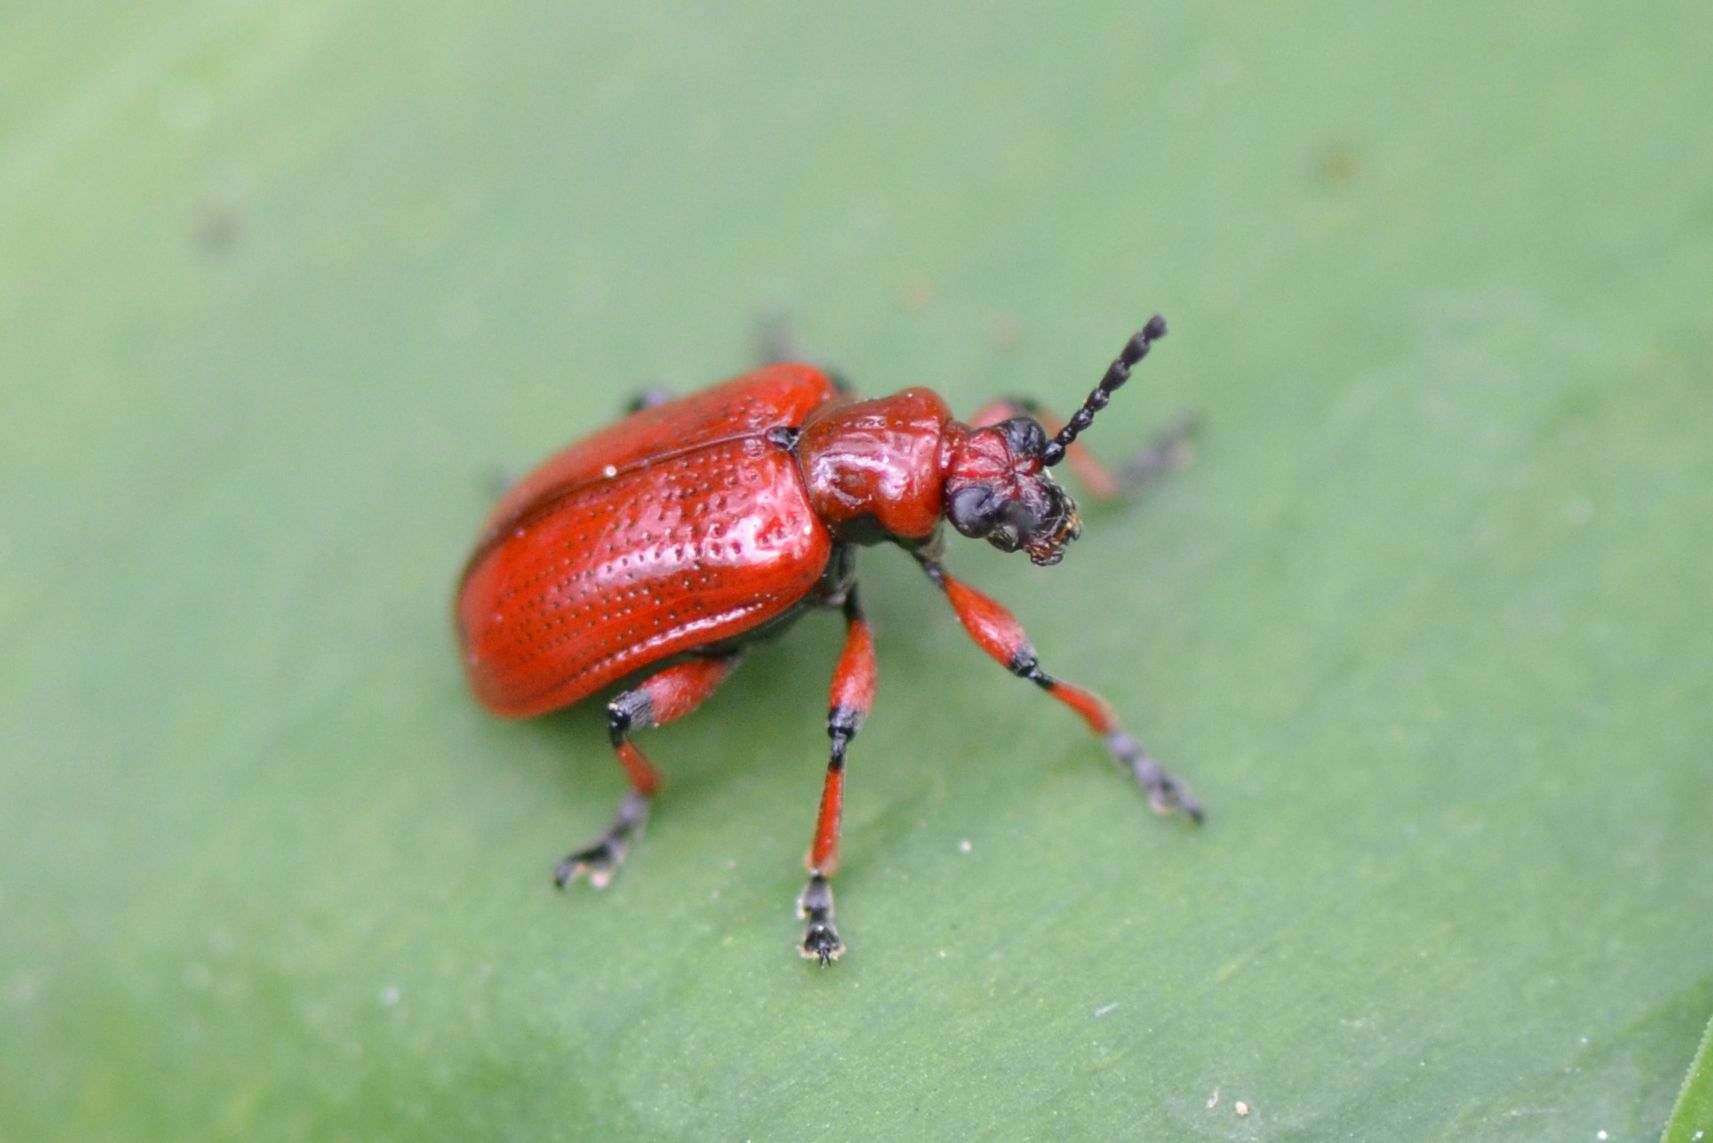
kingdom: Animalia
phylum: Arthropoda
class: Insecta
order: Coleoptera
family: Chrysomelidae
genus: Lilioceris
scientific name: Lilioceris merdigera
